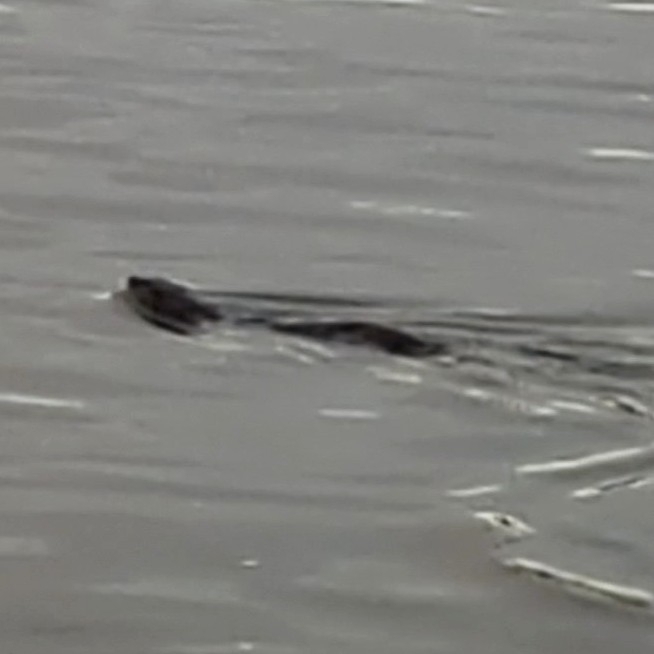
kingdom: Animalia
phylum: Chordata
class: Mammalia
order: Carnivora
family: Mustelidae
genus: Lontra
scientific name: Lontra canadensis
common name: North american river otter
